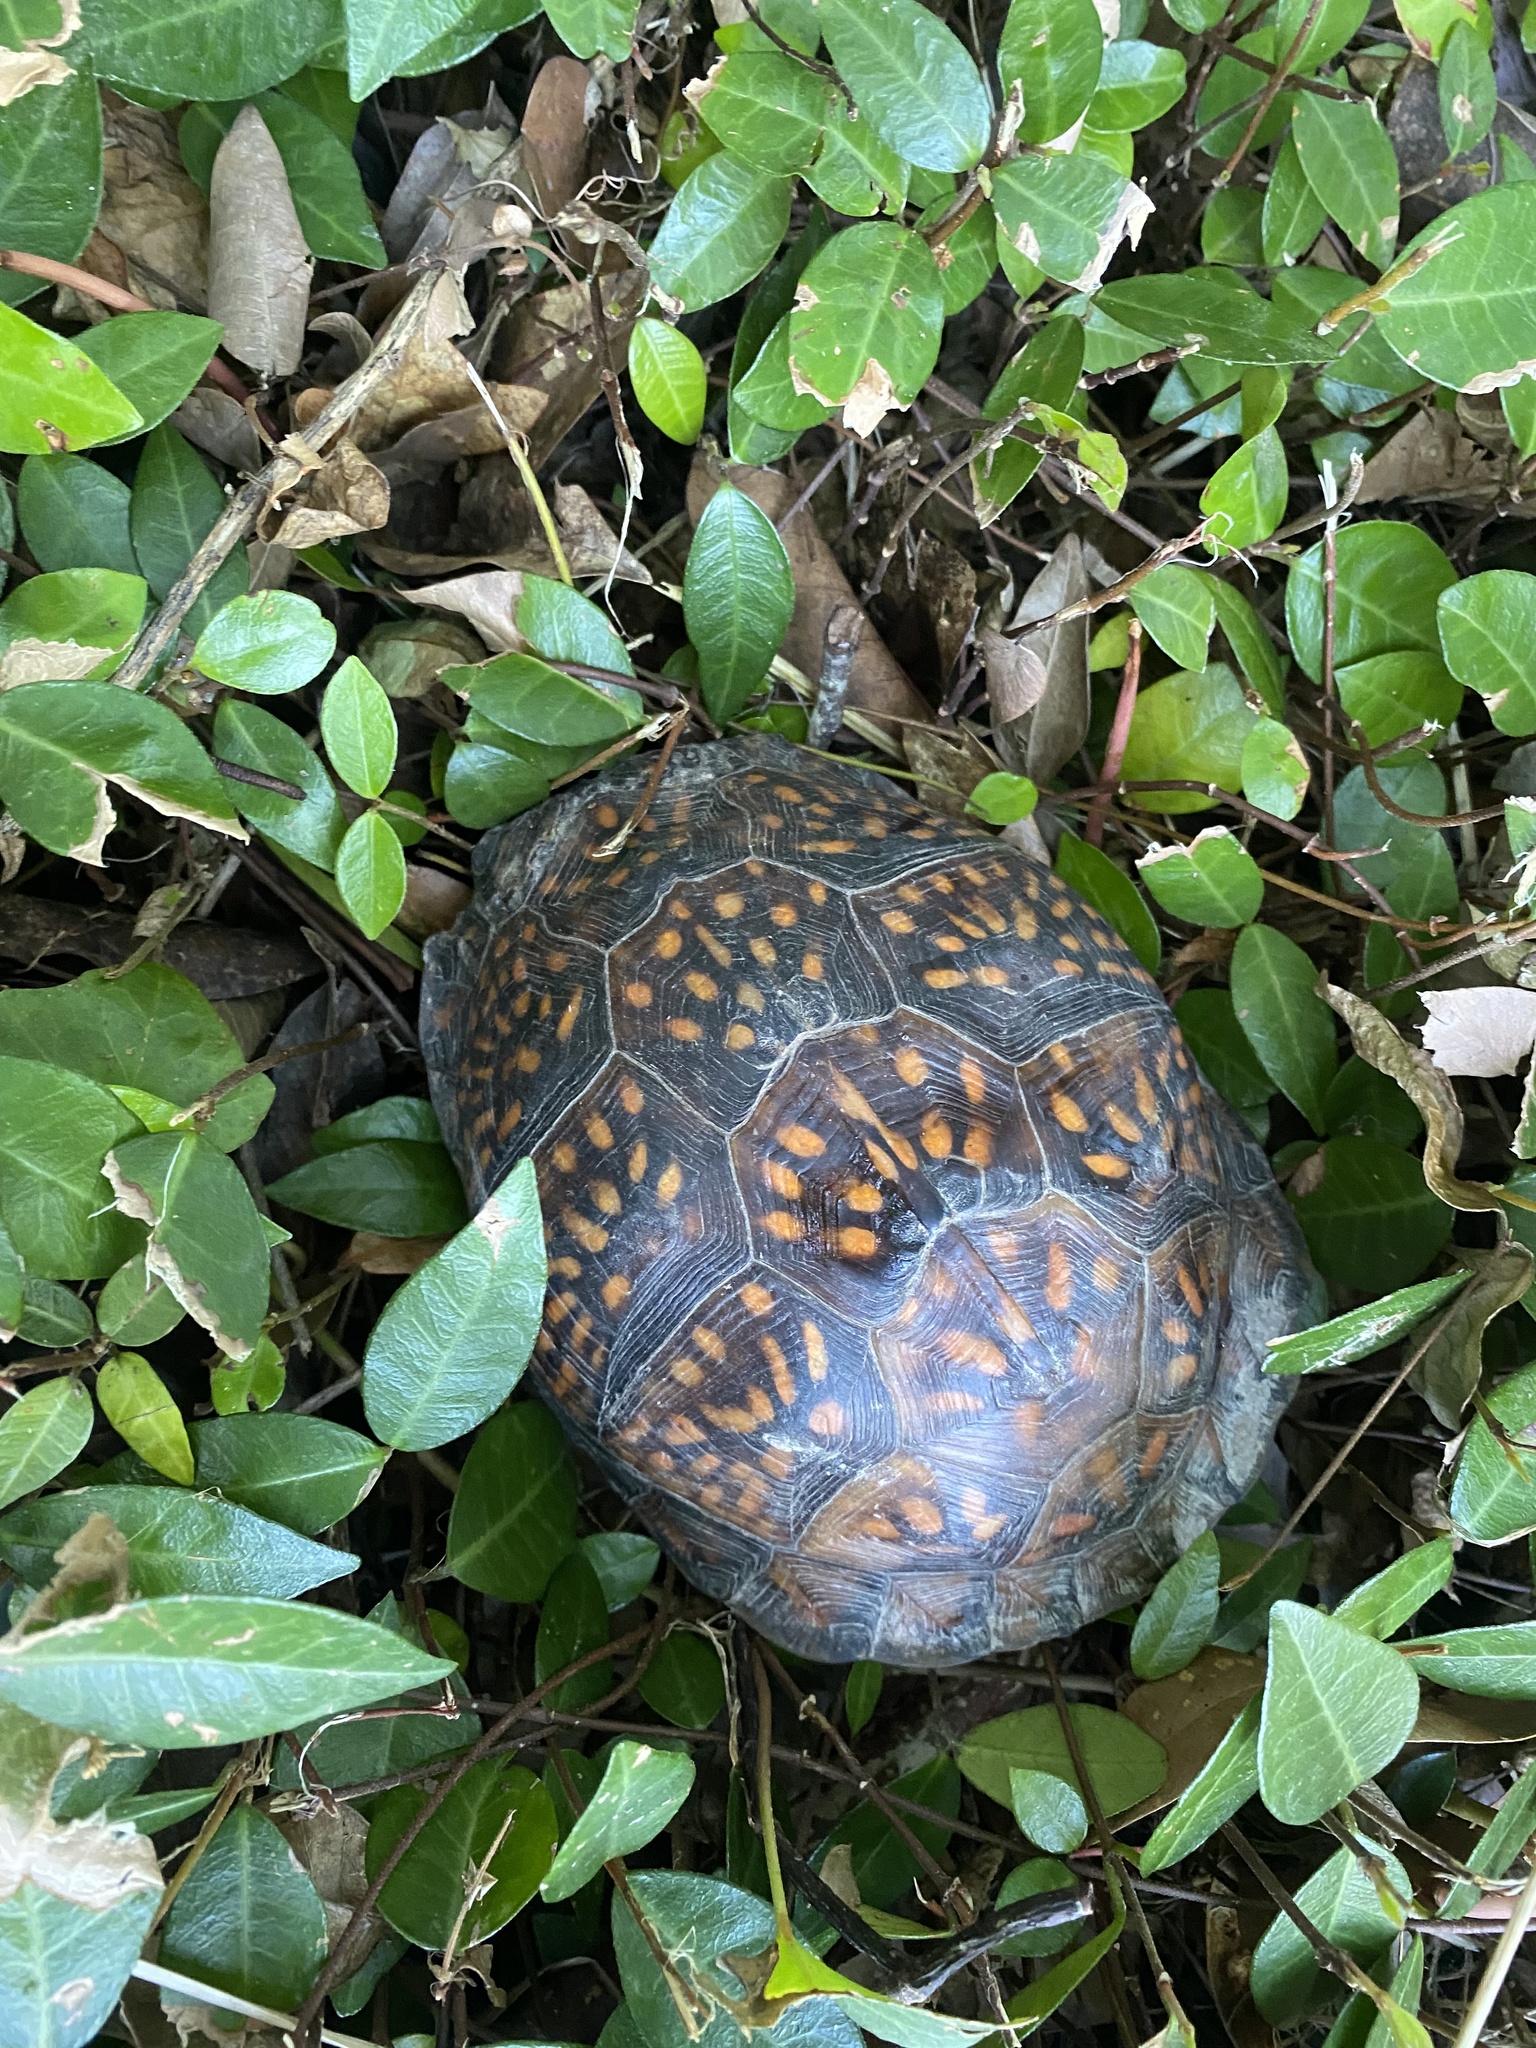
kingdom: Animalia
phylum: Chordata
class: Testudines
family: Emydidae
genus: Terrapene
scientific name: Terrapene carolina
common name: Common box turtle
